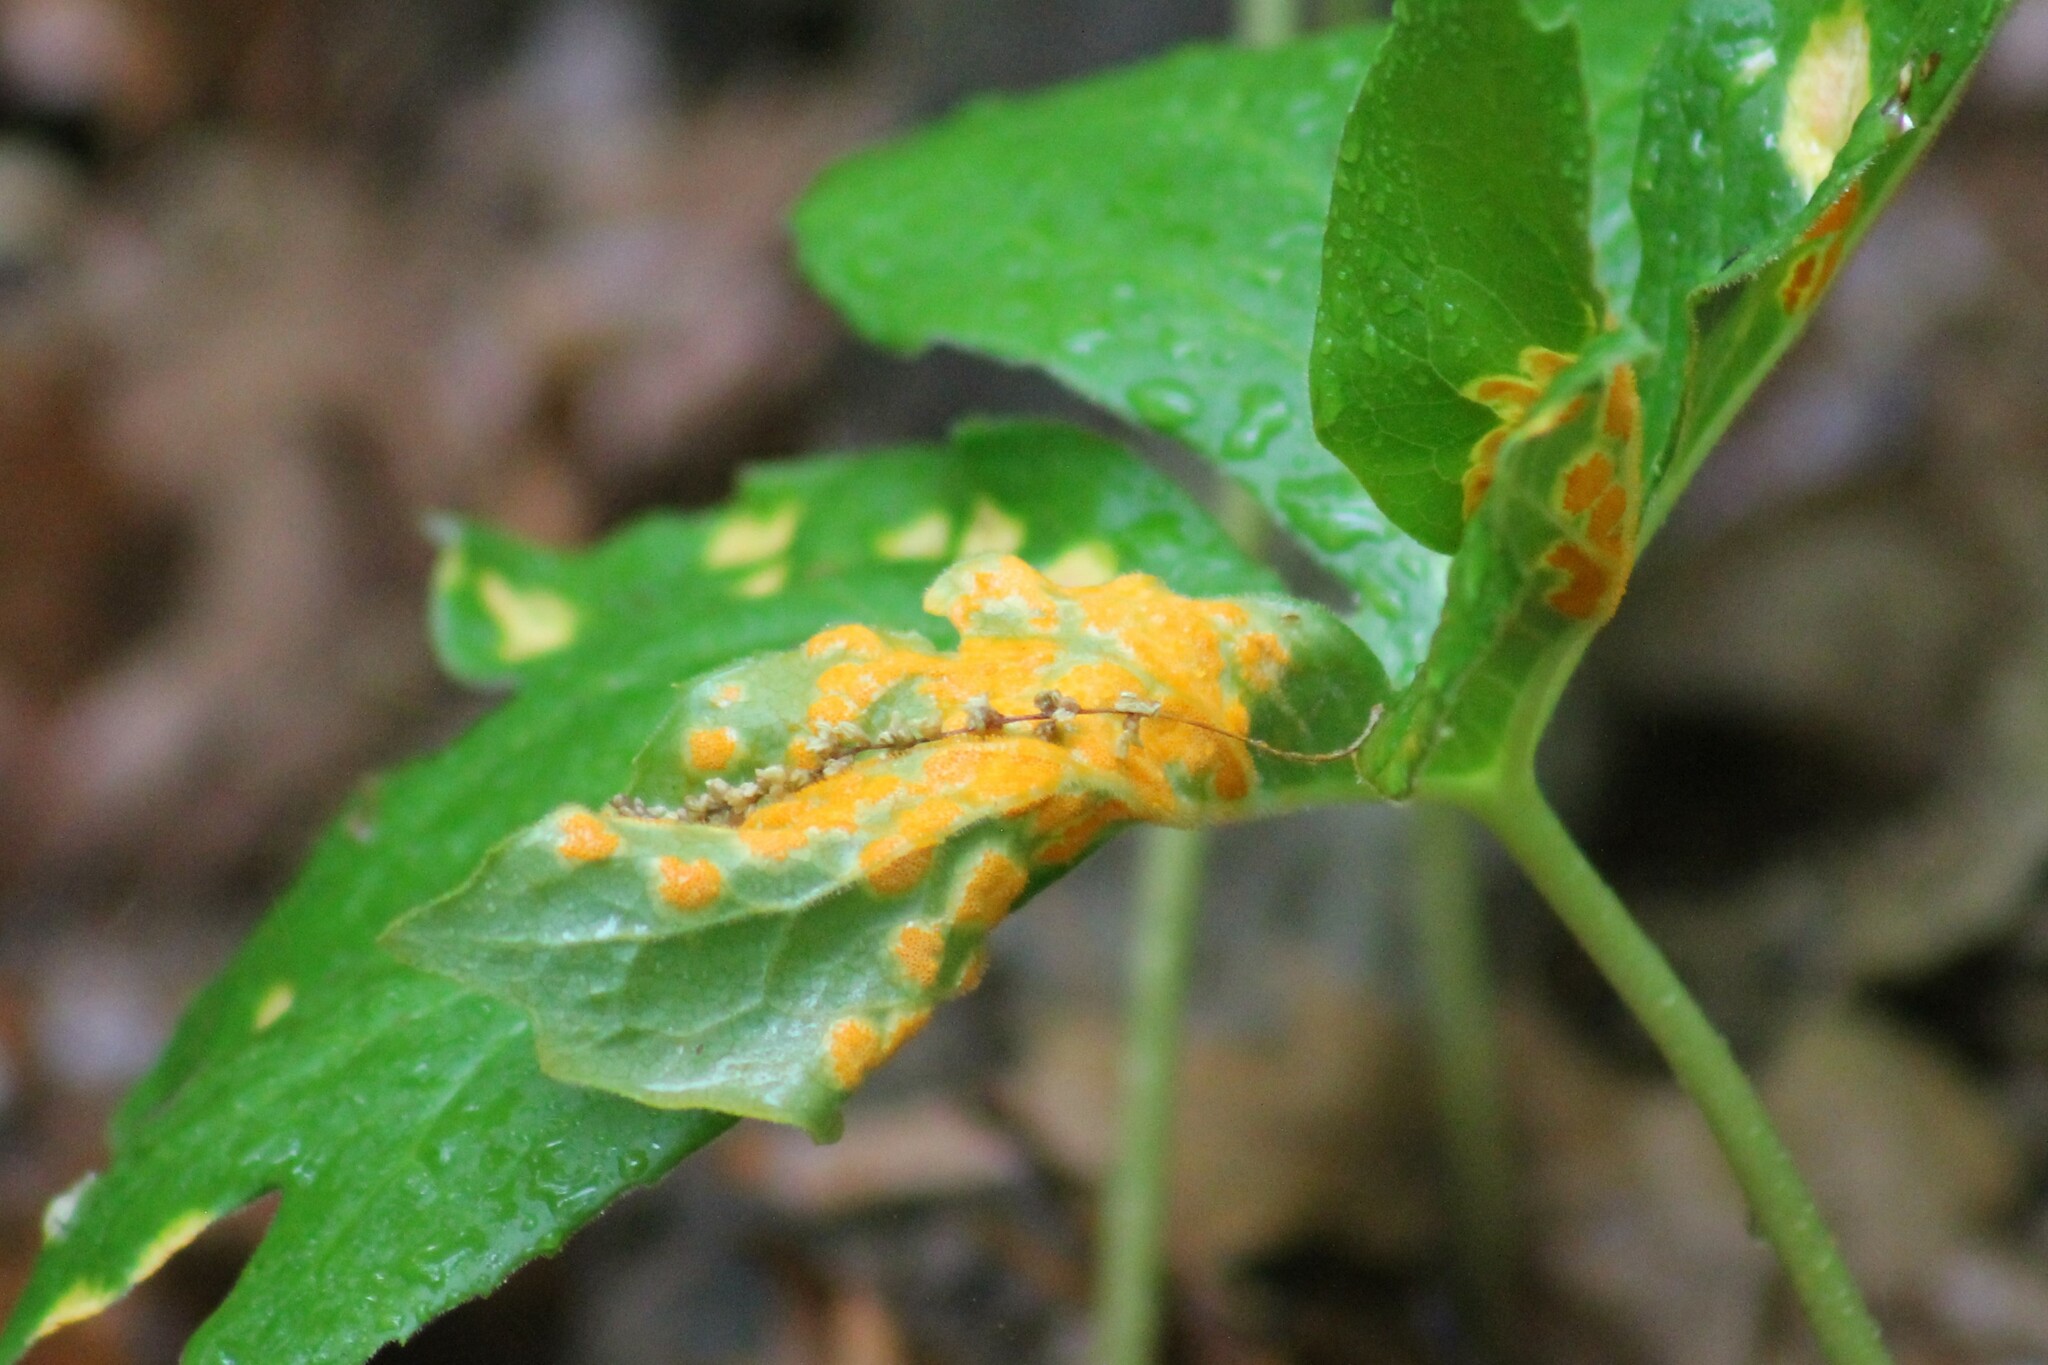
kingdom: Fungi
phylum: Basidiomycota
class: Pucciniomycetes
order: Pucciniales
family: Pucciniaceae
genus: Puccinia
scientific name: Puccinia podophylli
